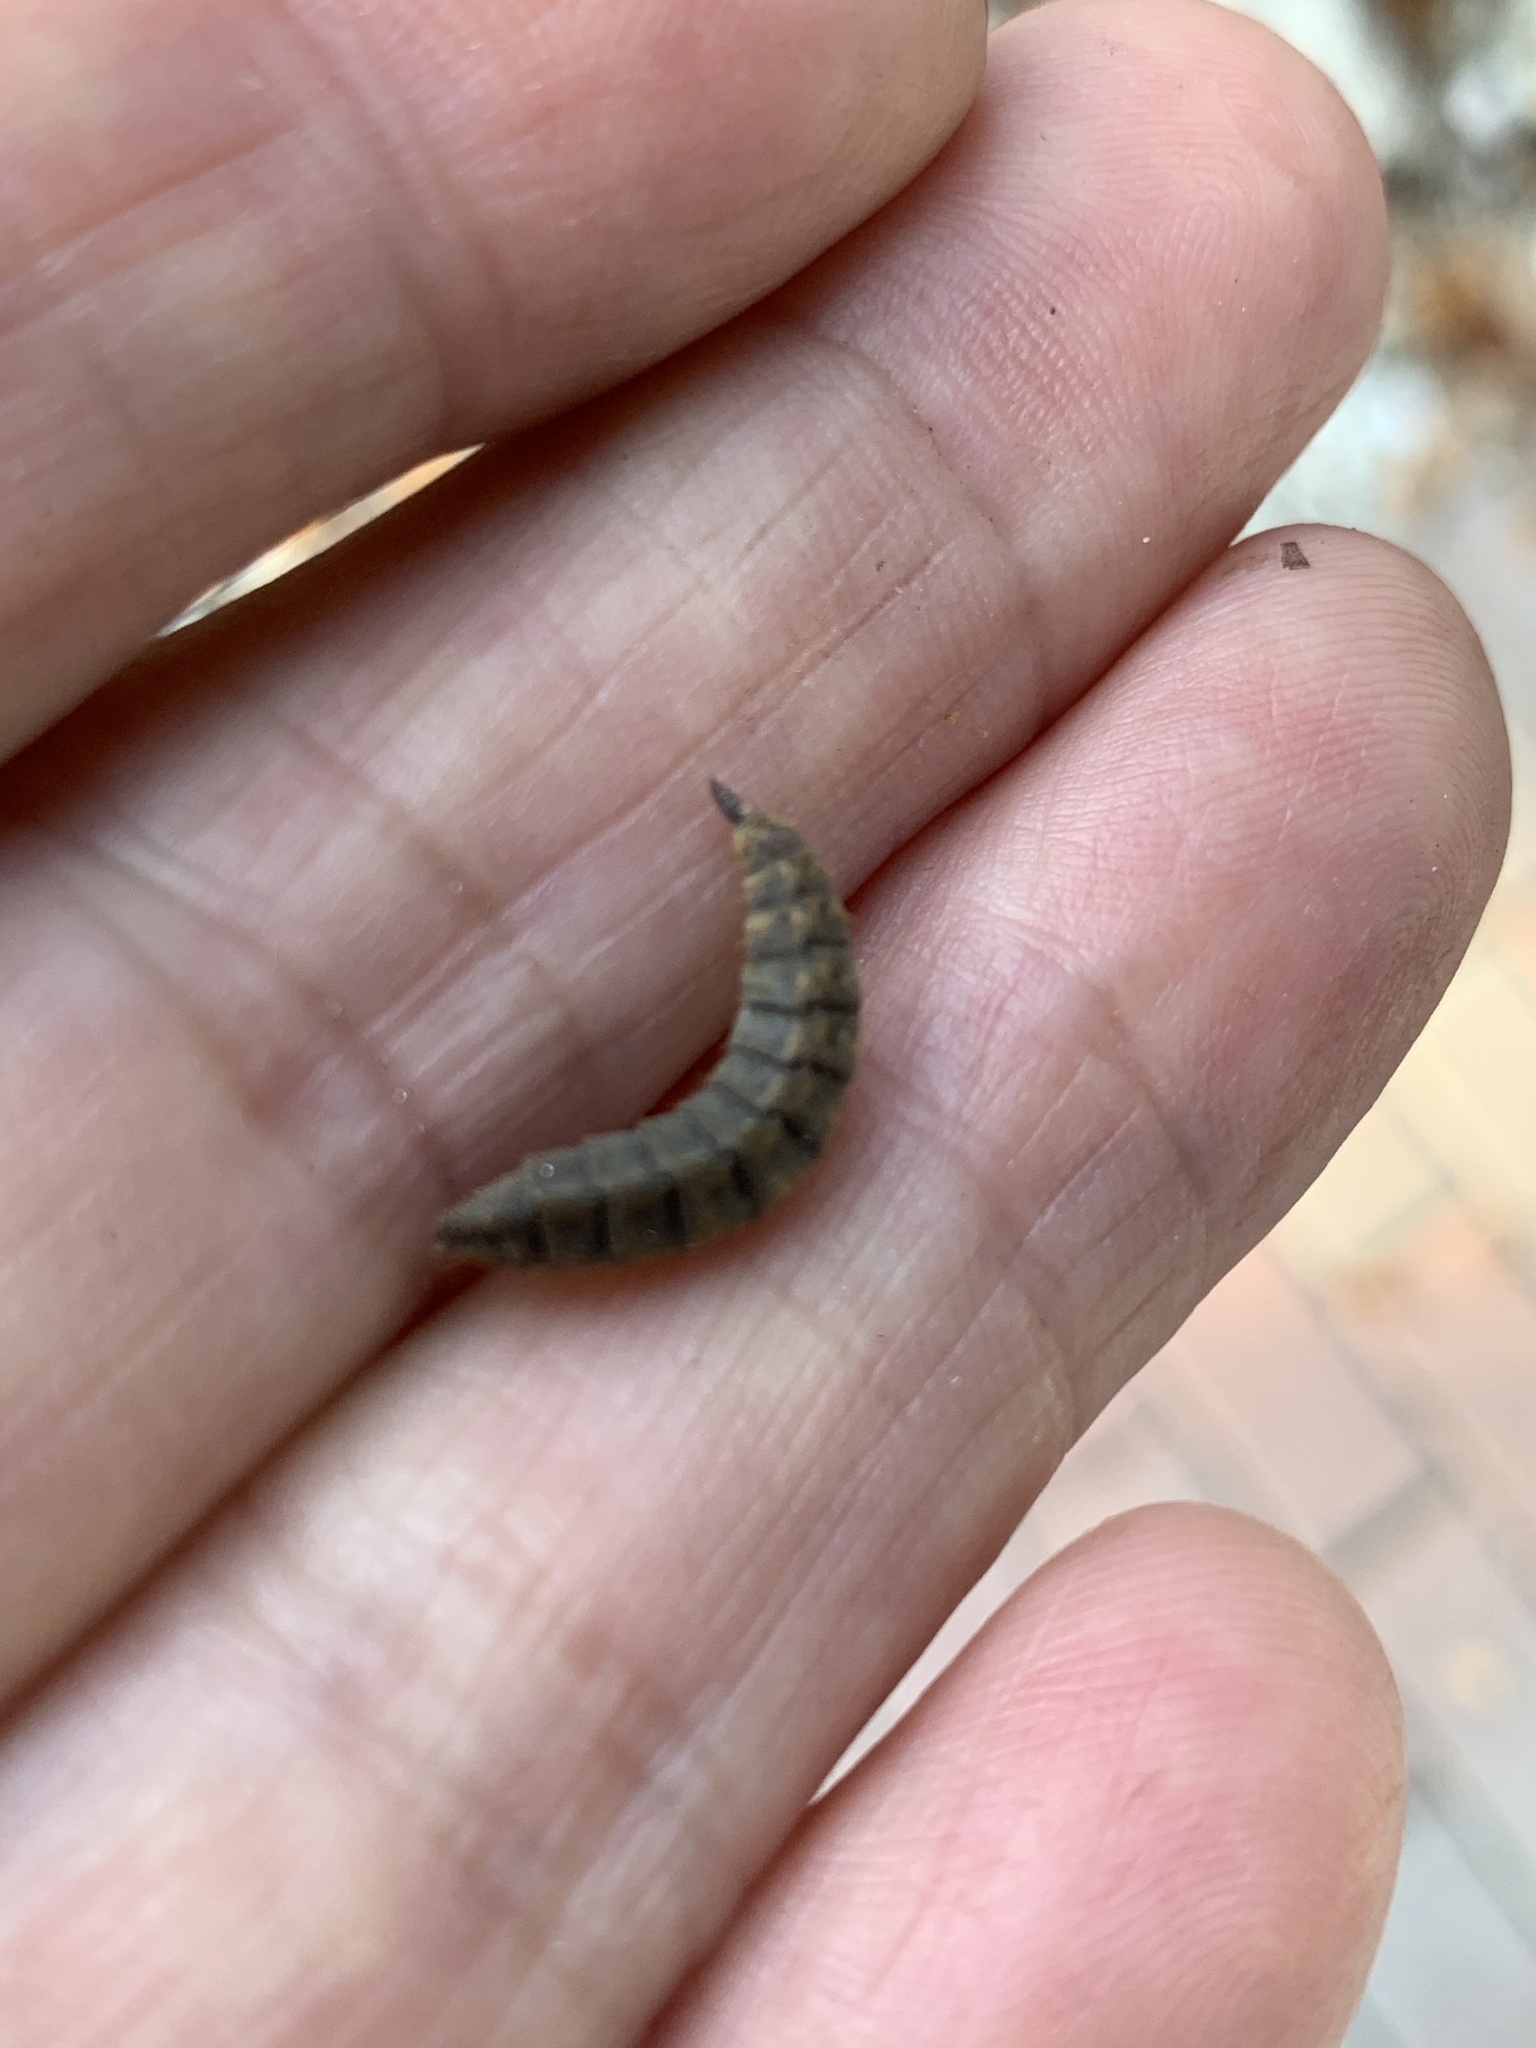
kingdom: Animalia
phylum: Arthropoda
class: Insecta
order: Diptera
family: Stratiomyidae
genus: Hermetia
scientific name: Hermetia illucens
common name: Black soldier fly
